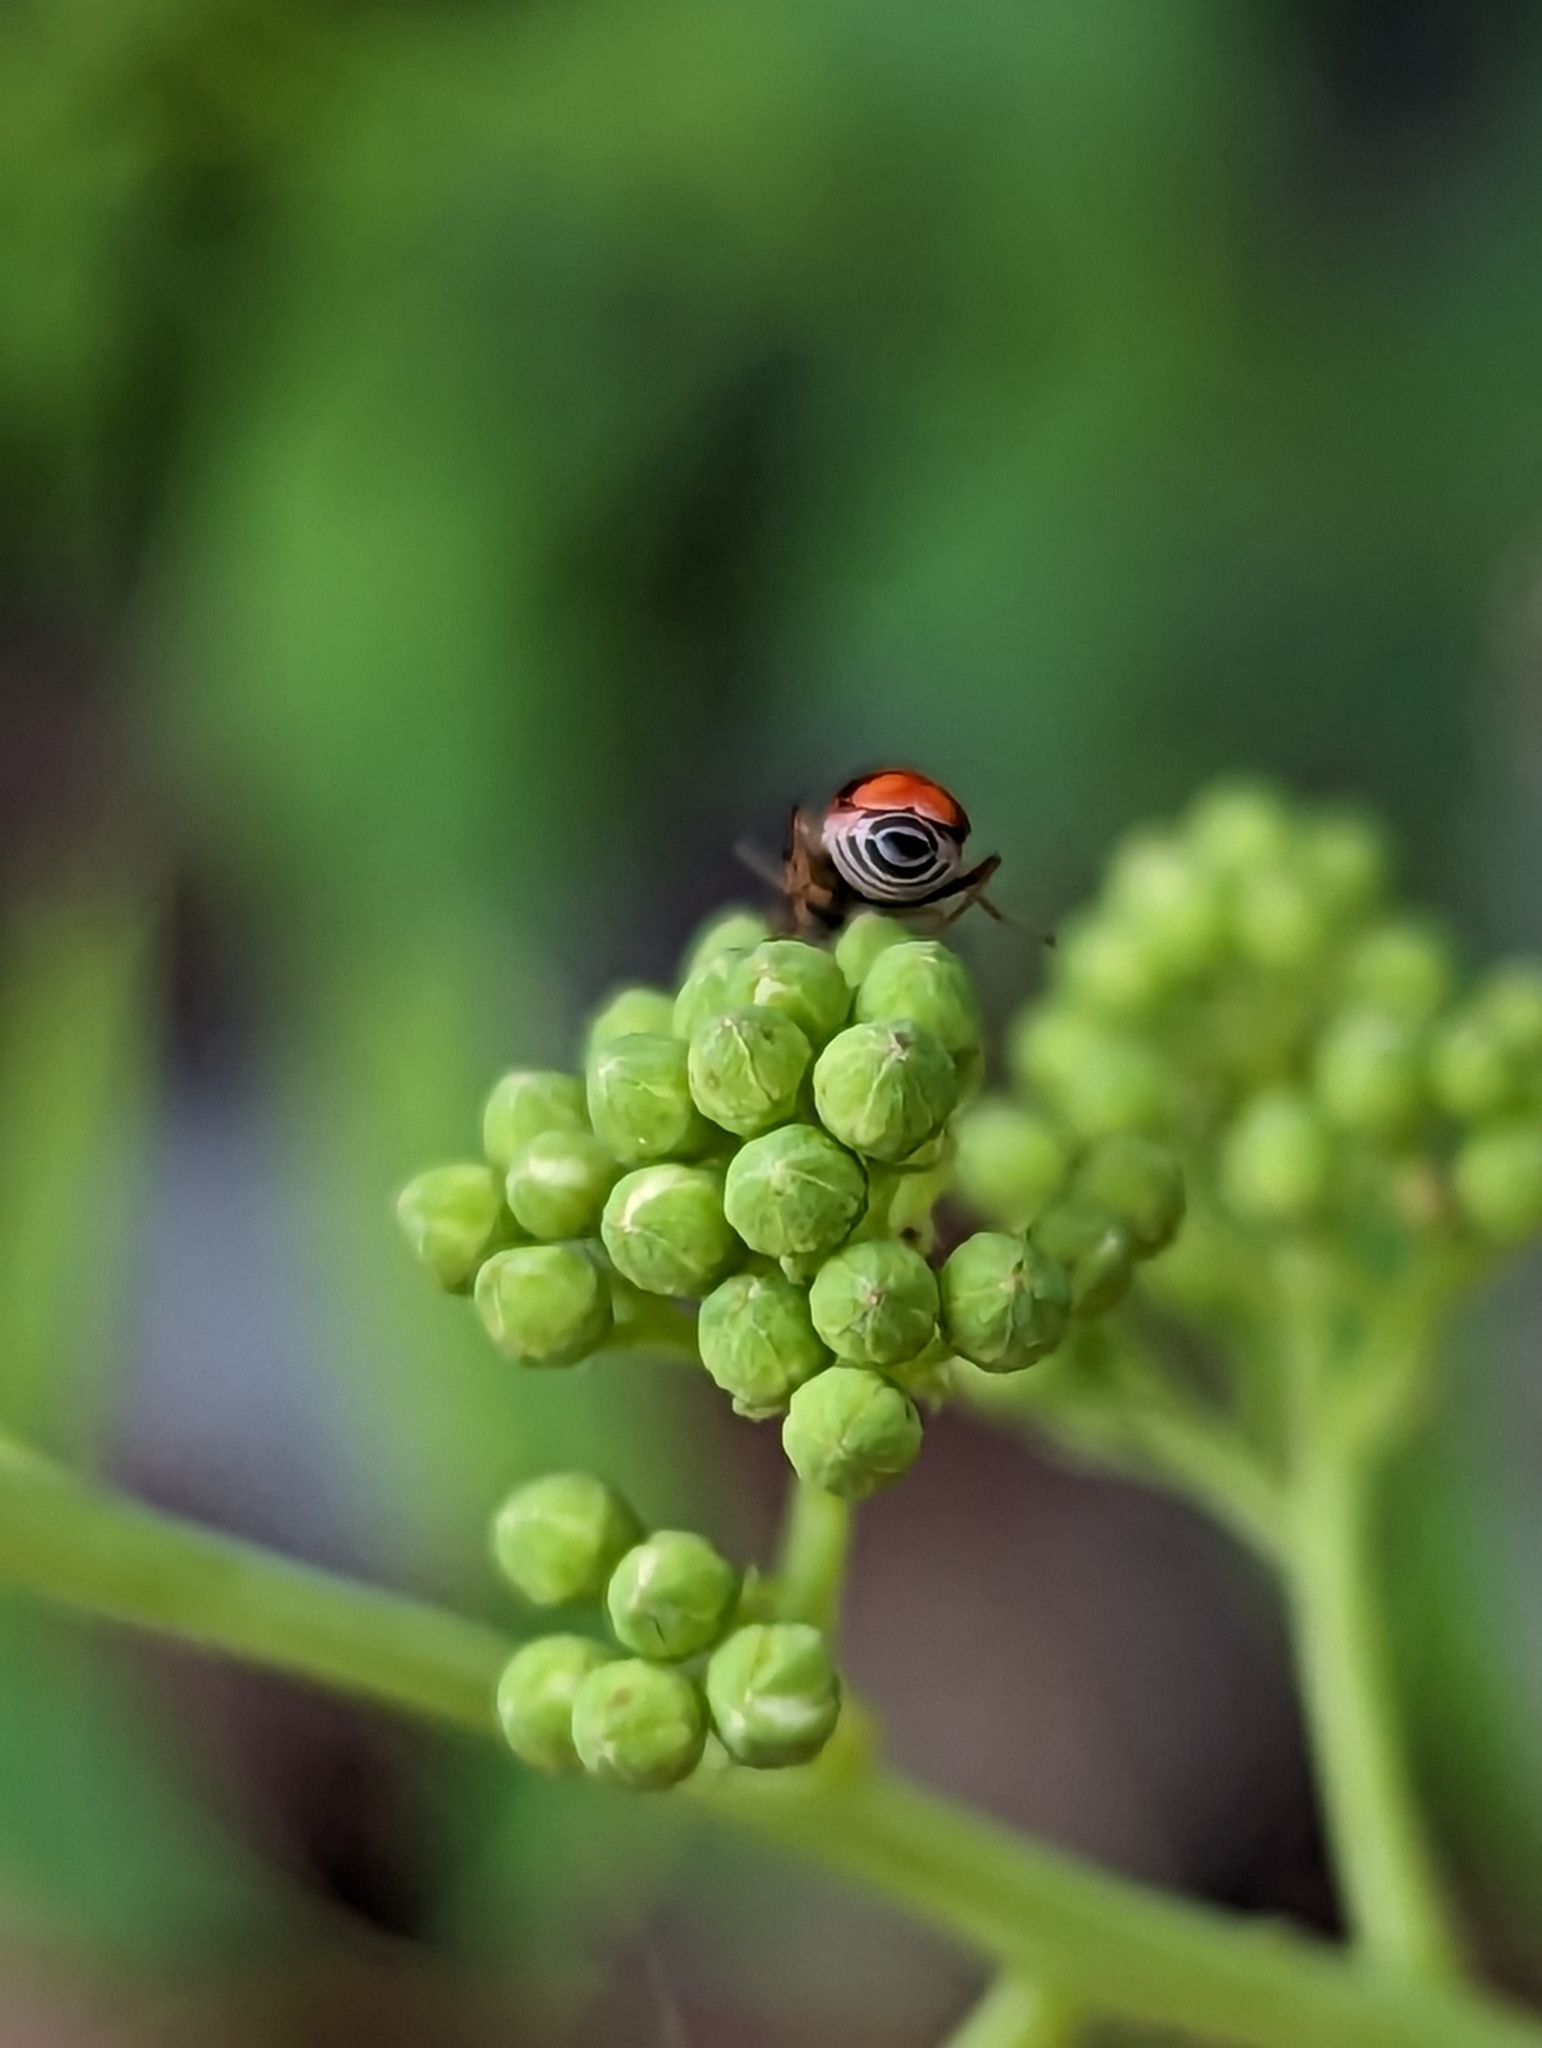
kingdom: Animalia
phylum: Arthropoda
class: Insecta
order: Coleoptera
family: Melyridae
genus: Anthocomus
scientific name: Anthocomus equestris
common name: Black-banded soft-winged flower beetle
